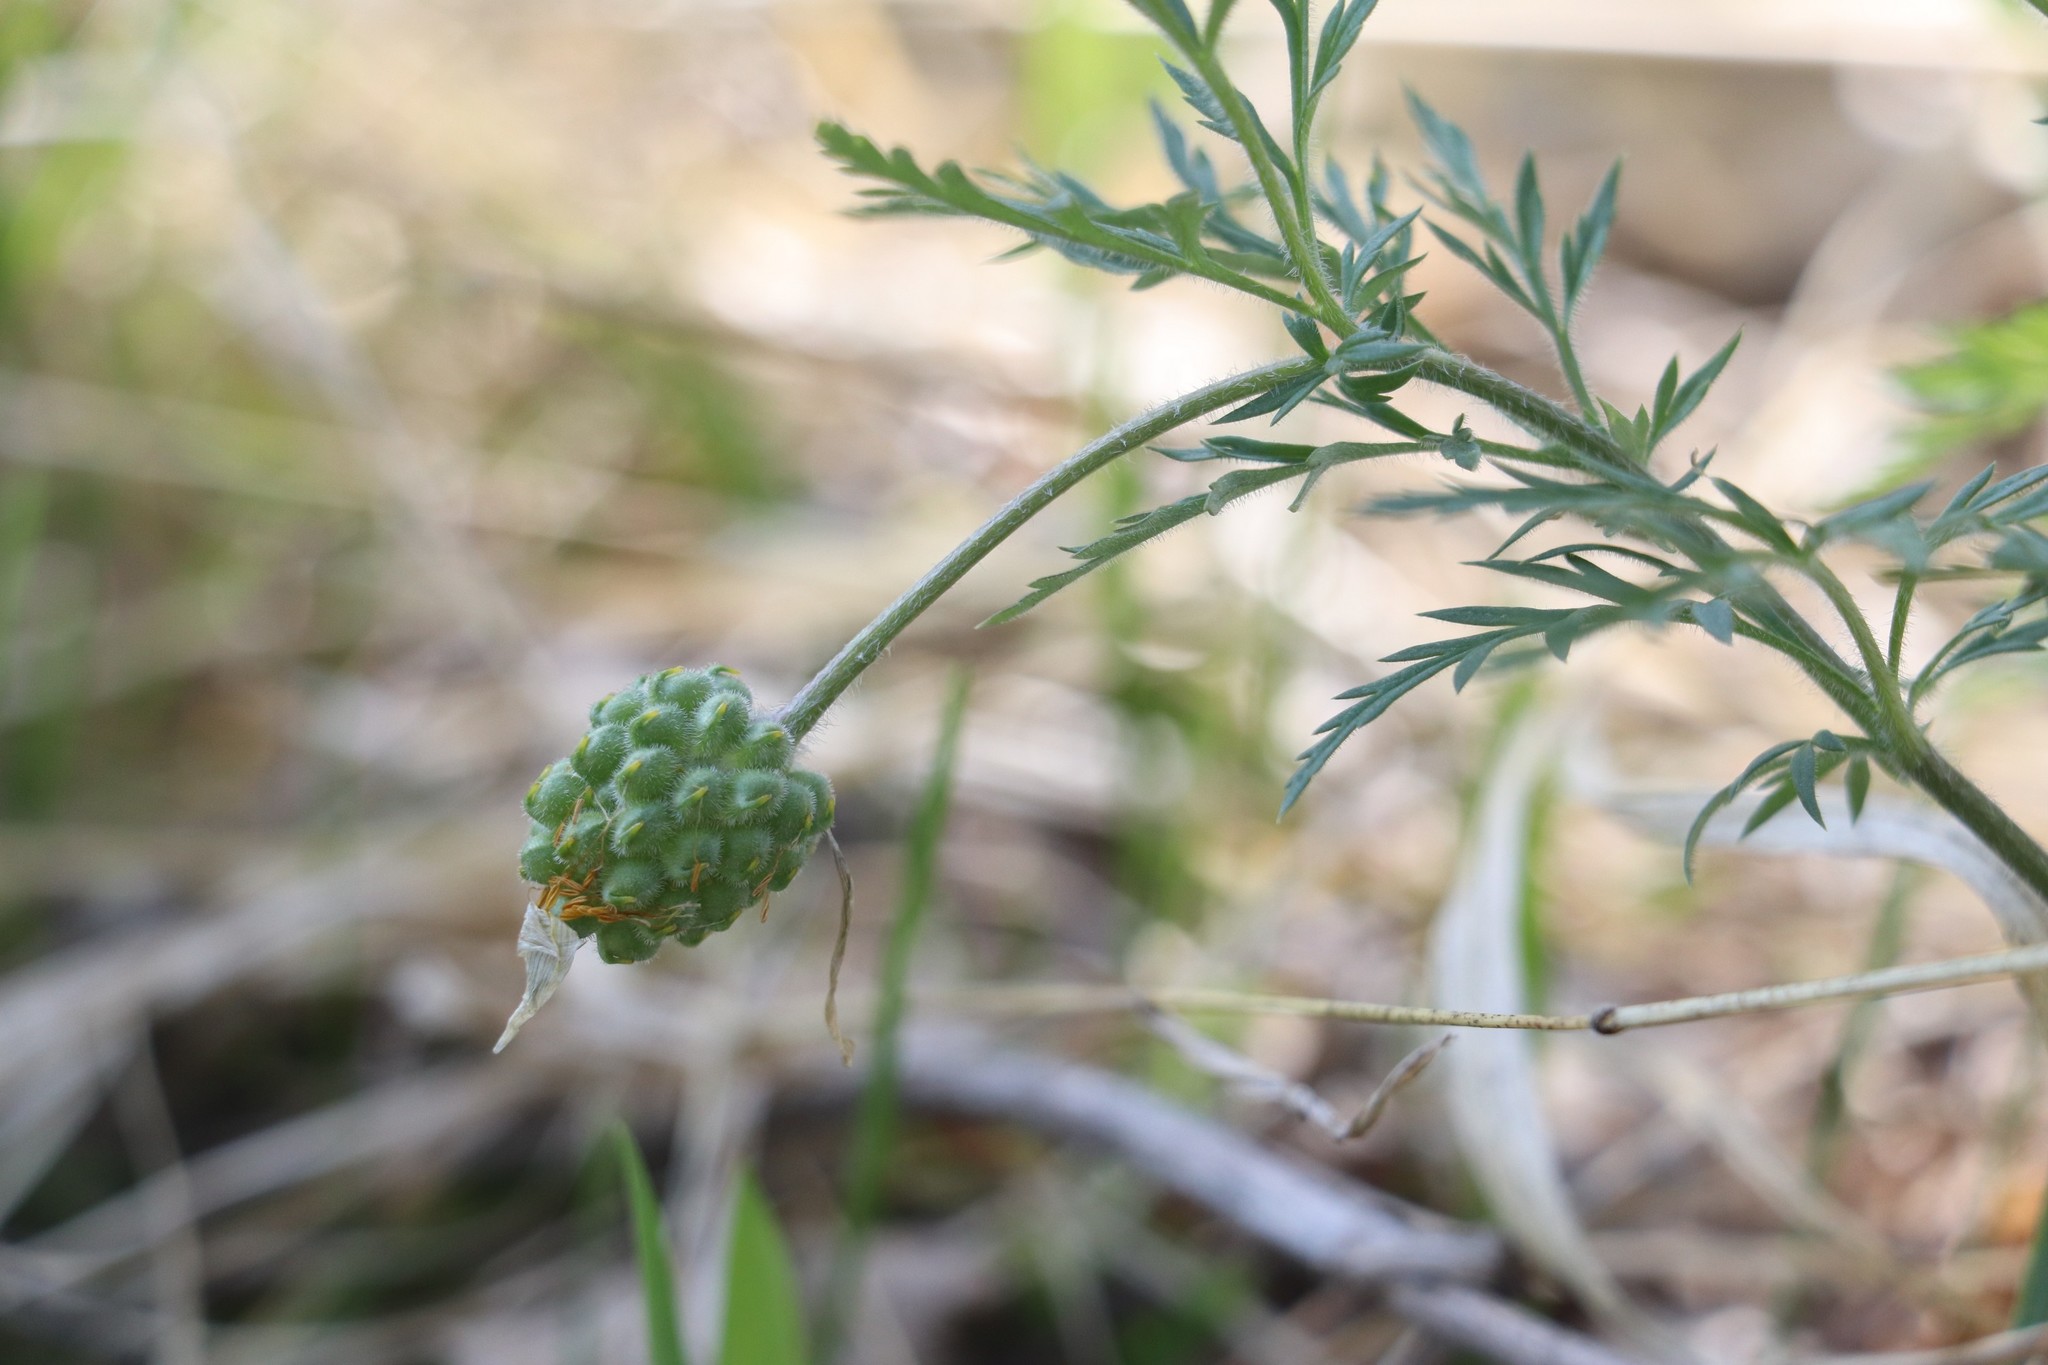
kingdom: Plantae
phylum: Tracheophyta
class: Magnoliopsida
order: Ranunculales
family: Ranunculaceae
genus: Adonis
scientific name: Adonis villosa
